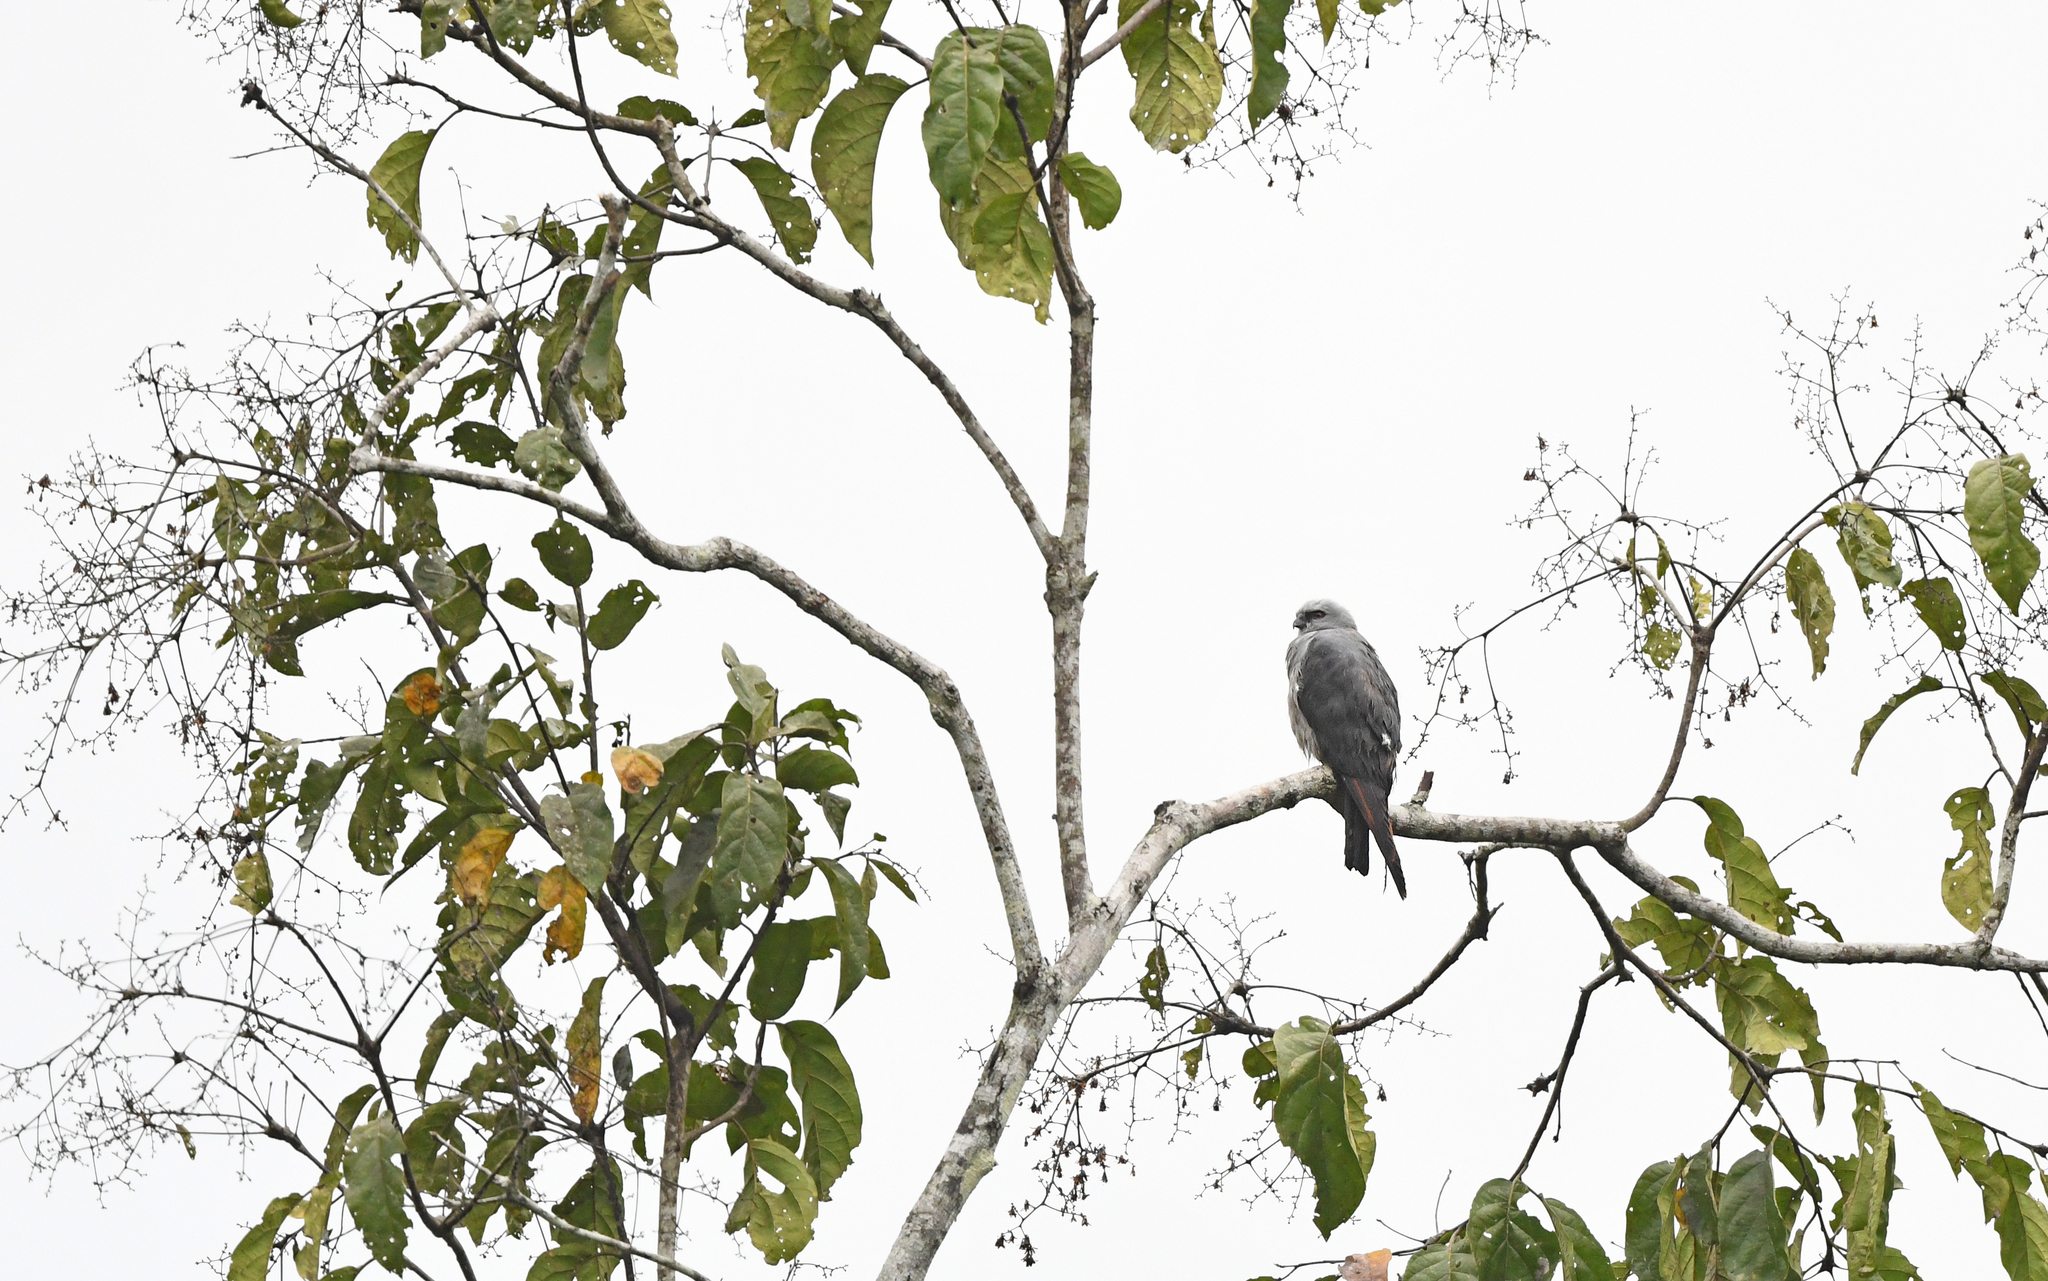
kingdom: Animalia
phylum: Chordata
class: Aves
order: Accipitriformes
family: Accipitridae
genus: Ictinia
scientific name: Ictinia plumbea
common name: Plumbeous kite
